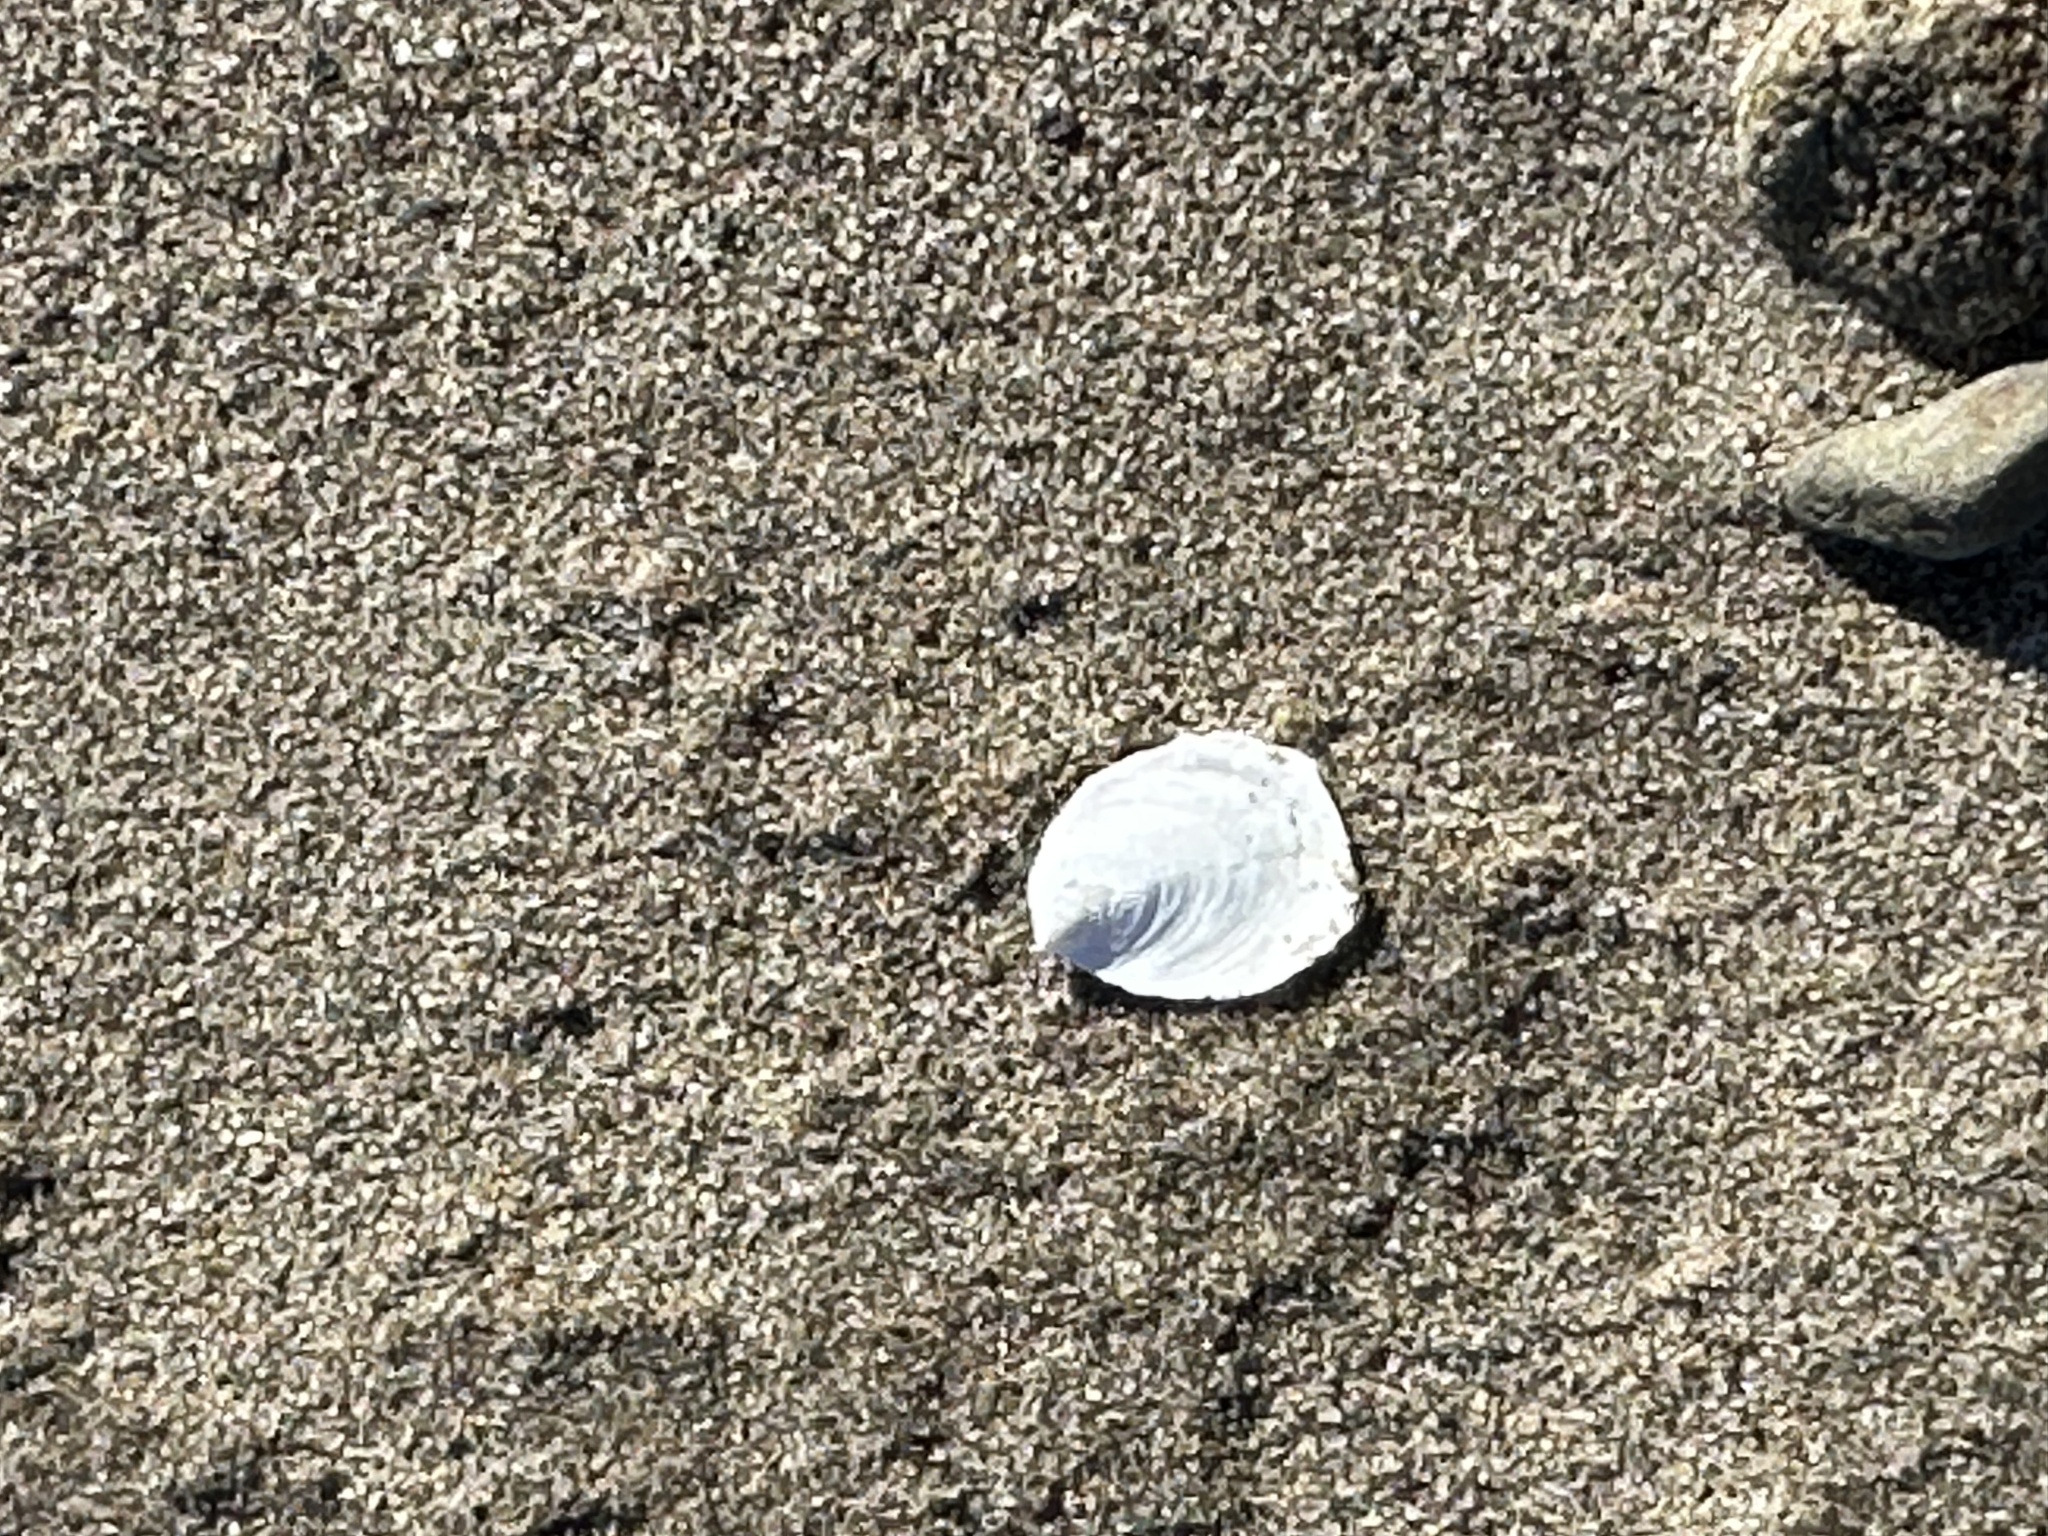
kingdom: Animalia
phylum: Mollusca
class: Gastropoda
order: Littorinimorpha
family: Calyptraeidae
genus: Crepidula
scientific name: Crepidula plana
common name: Eastern white slippersnail
